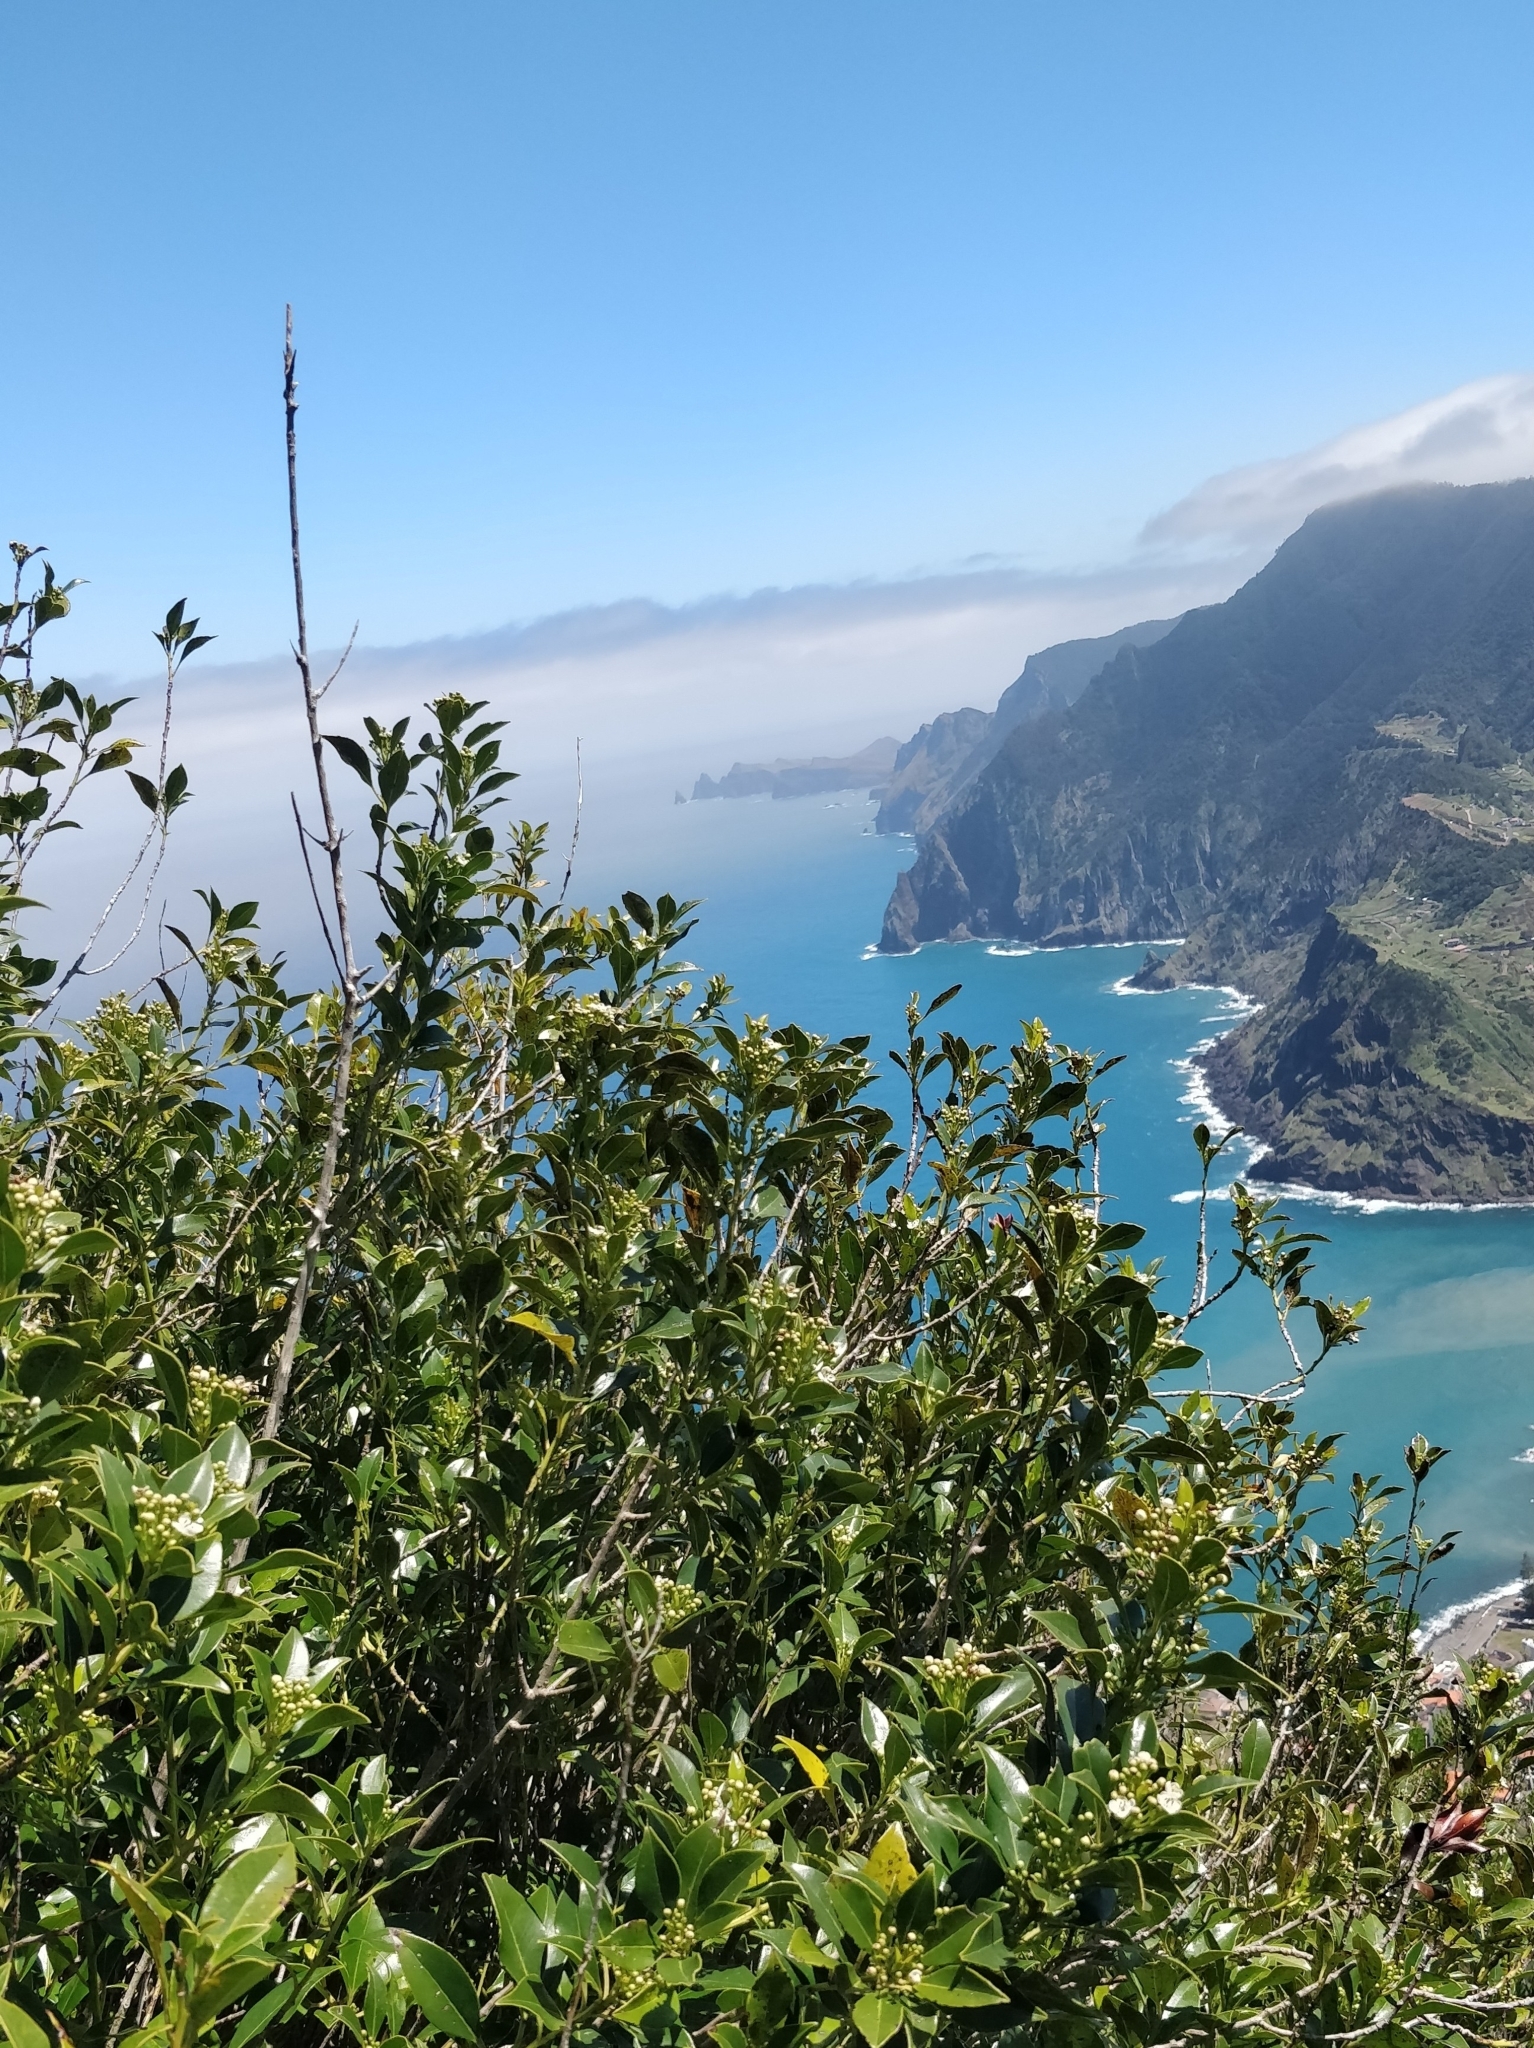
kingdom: Plantae
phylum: Tracheophyta
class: Magnoliopsida
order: Aquifoliales
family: Aquifoliaceae
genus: Ilex
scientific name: Ilex canariensis
